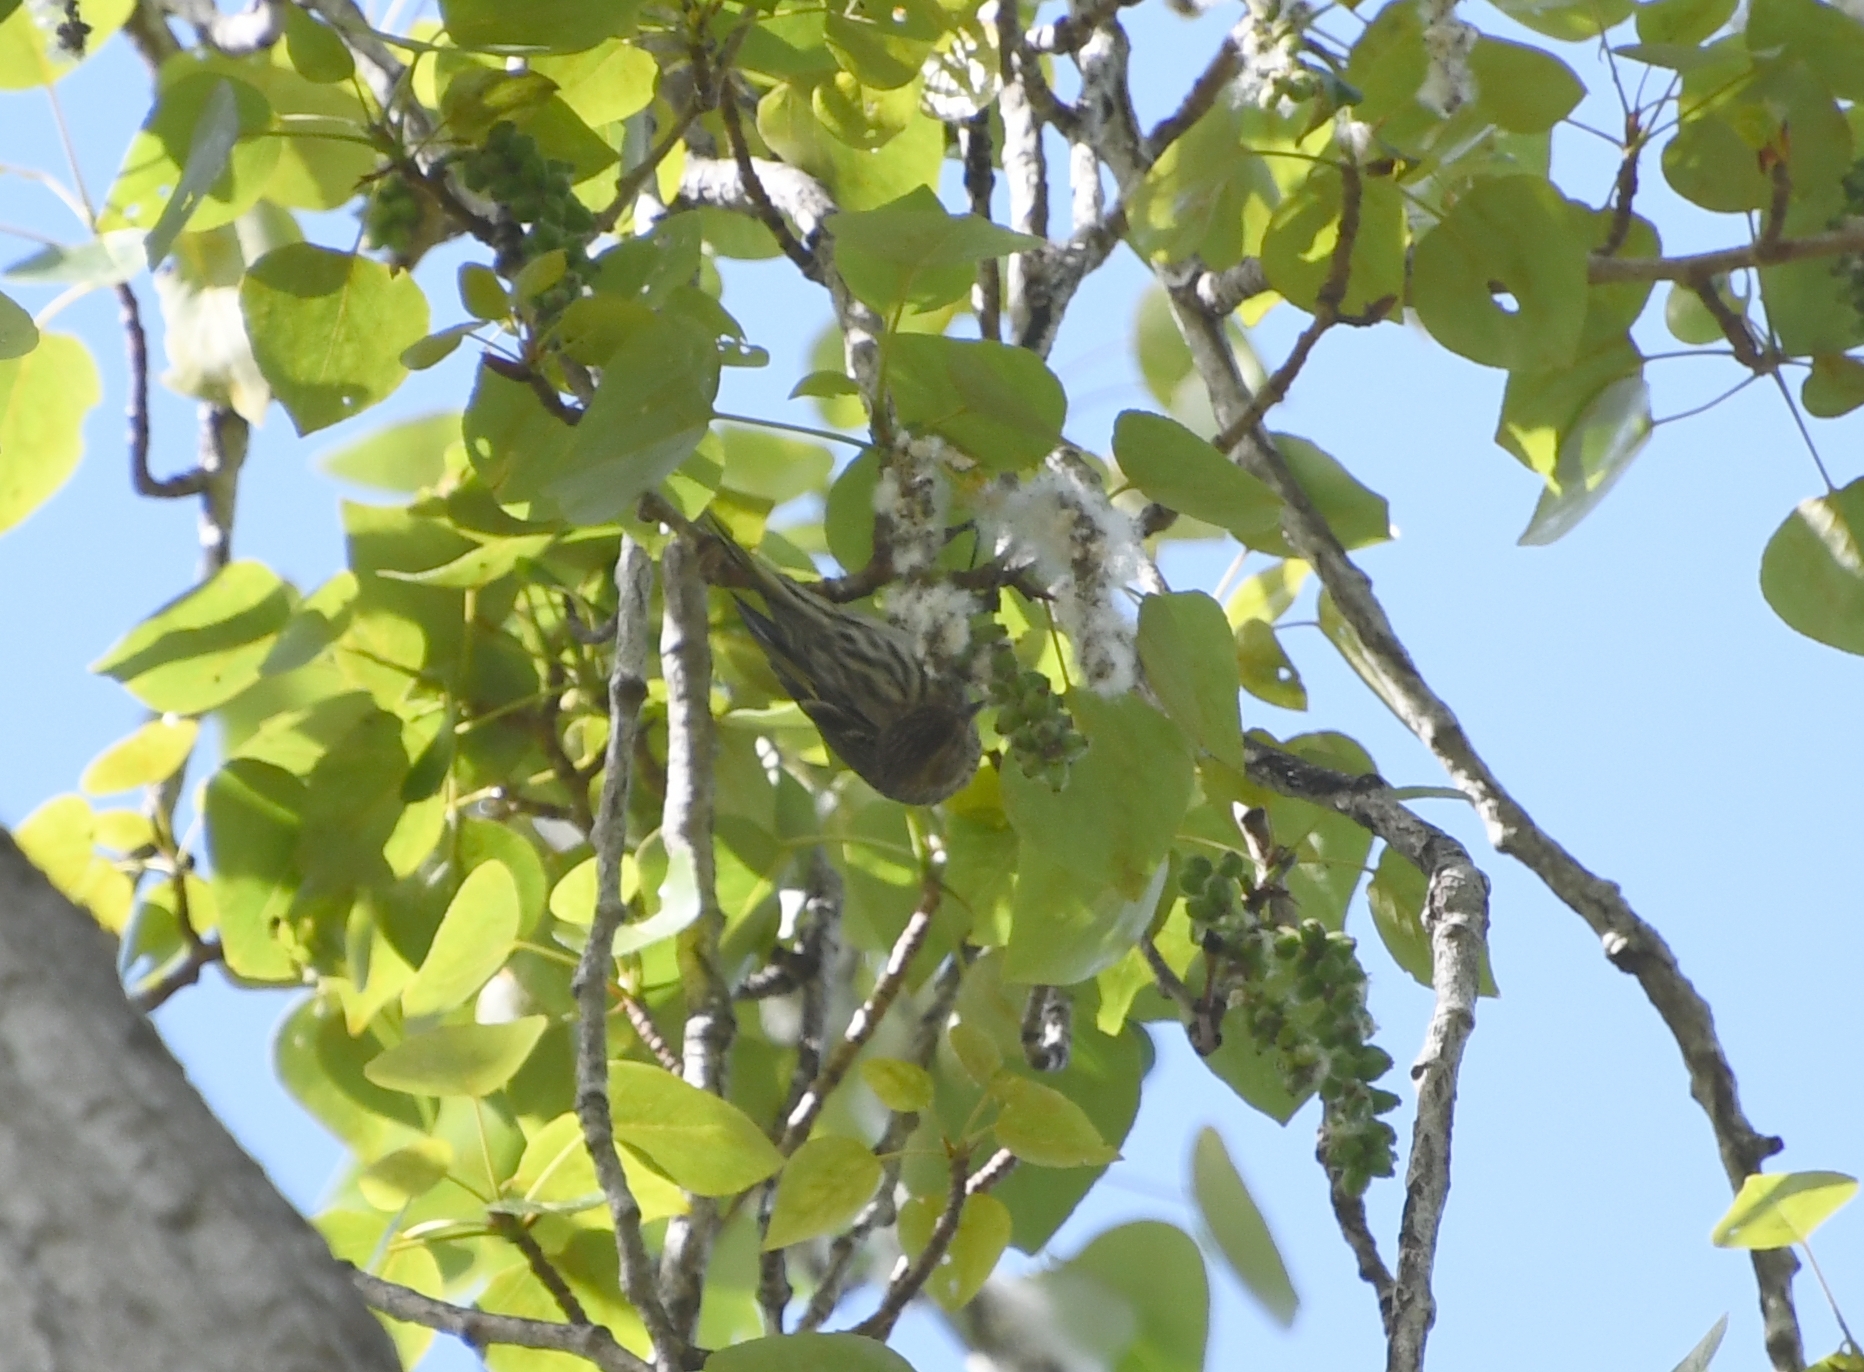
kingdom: Animalia
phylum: Chordata
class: Aves
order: Passeriformes
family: Fringillidae
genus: Spinus
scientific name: Spinus pinus
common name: Pine siskin
